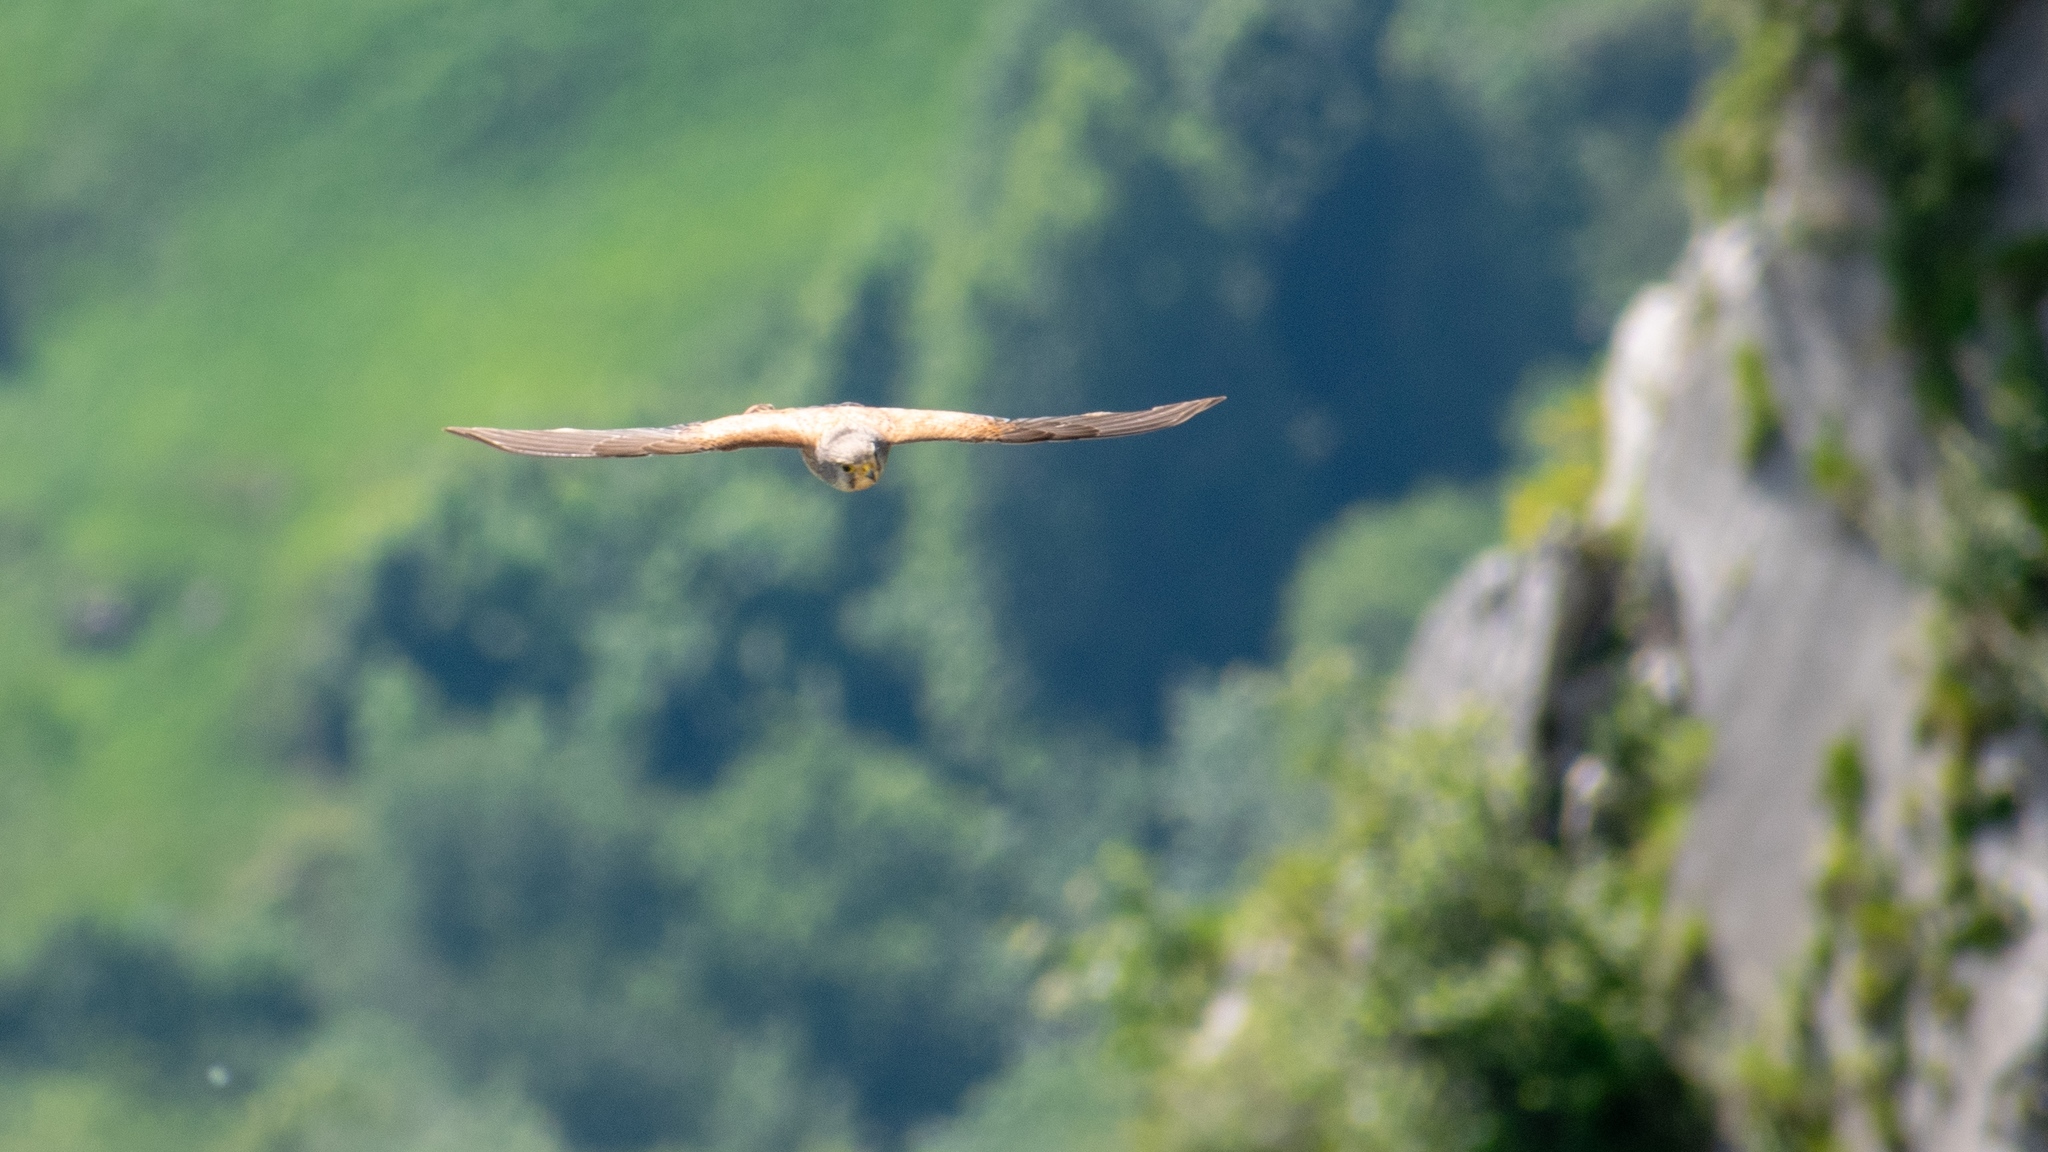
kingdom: Animalia
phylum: Chordata
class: Aves
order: Falconiformes
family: Falconidae
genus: Falco
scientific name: Falco tinnunculus
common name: Common kestrel
